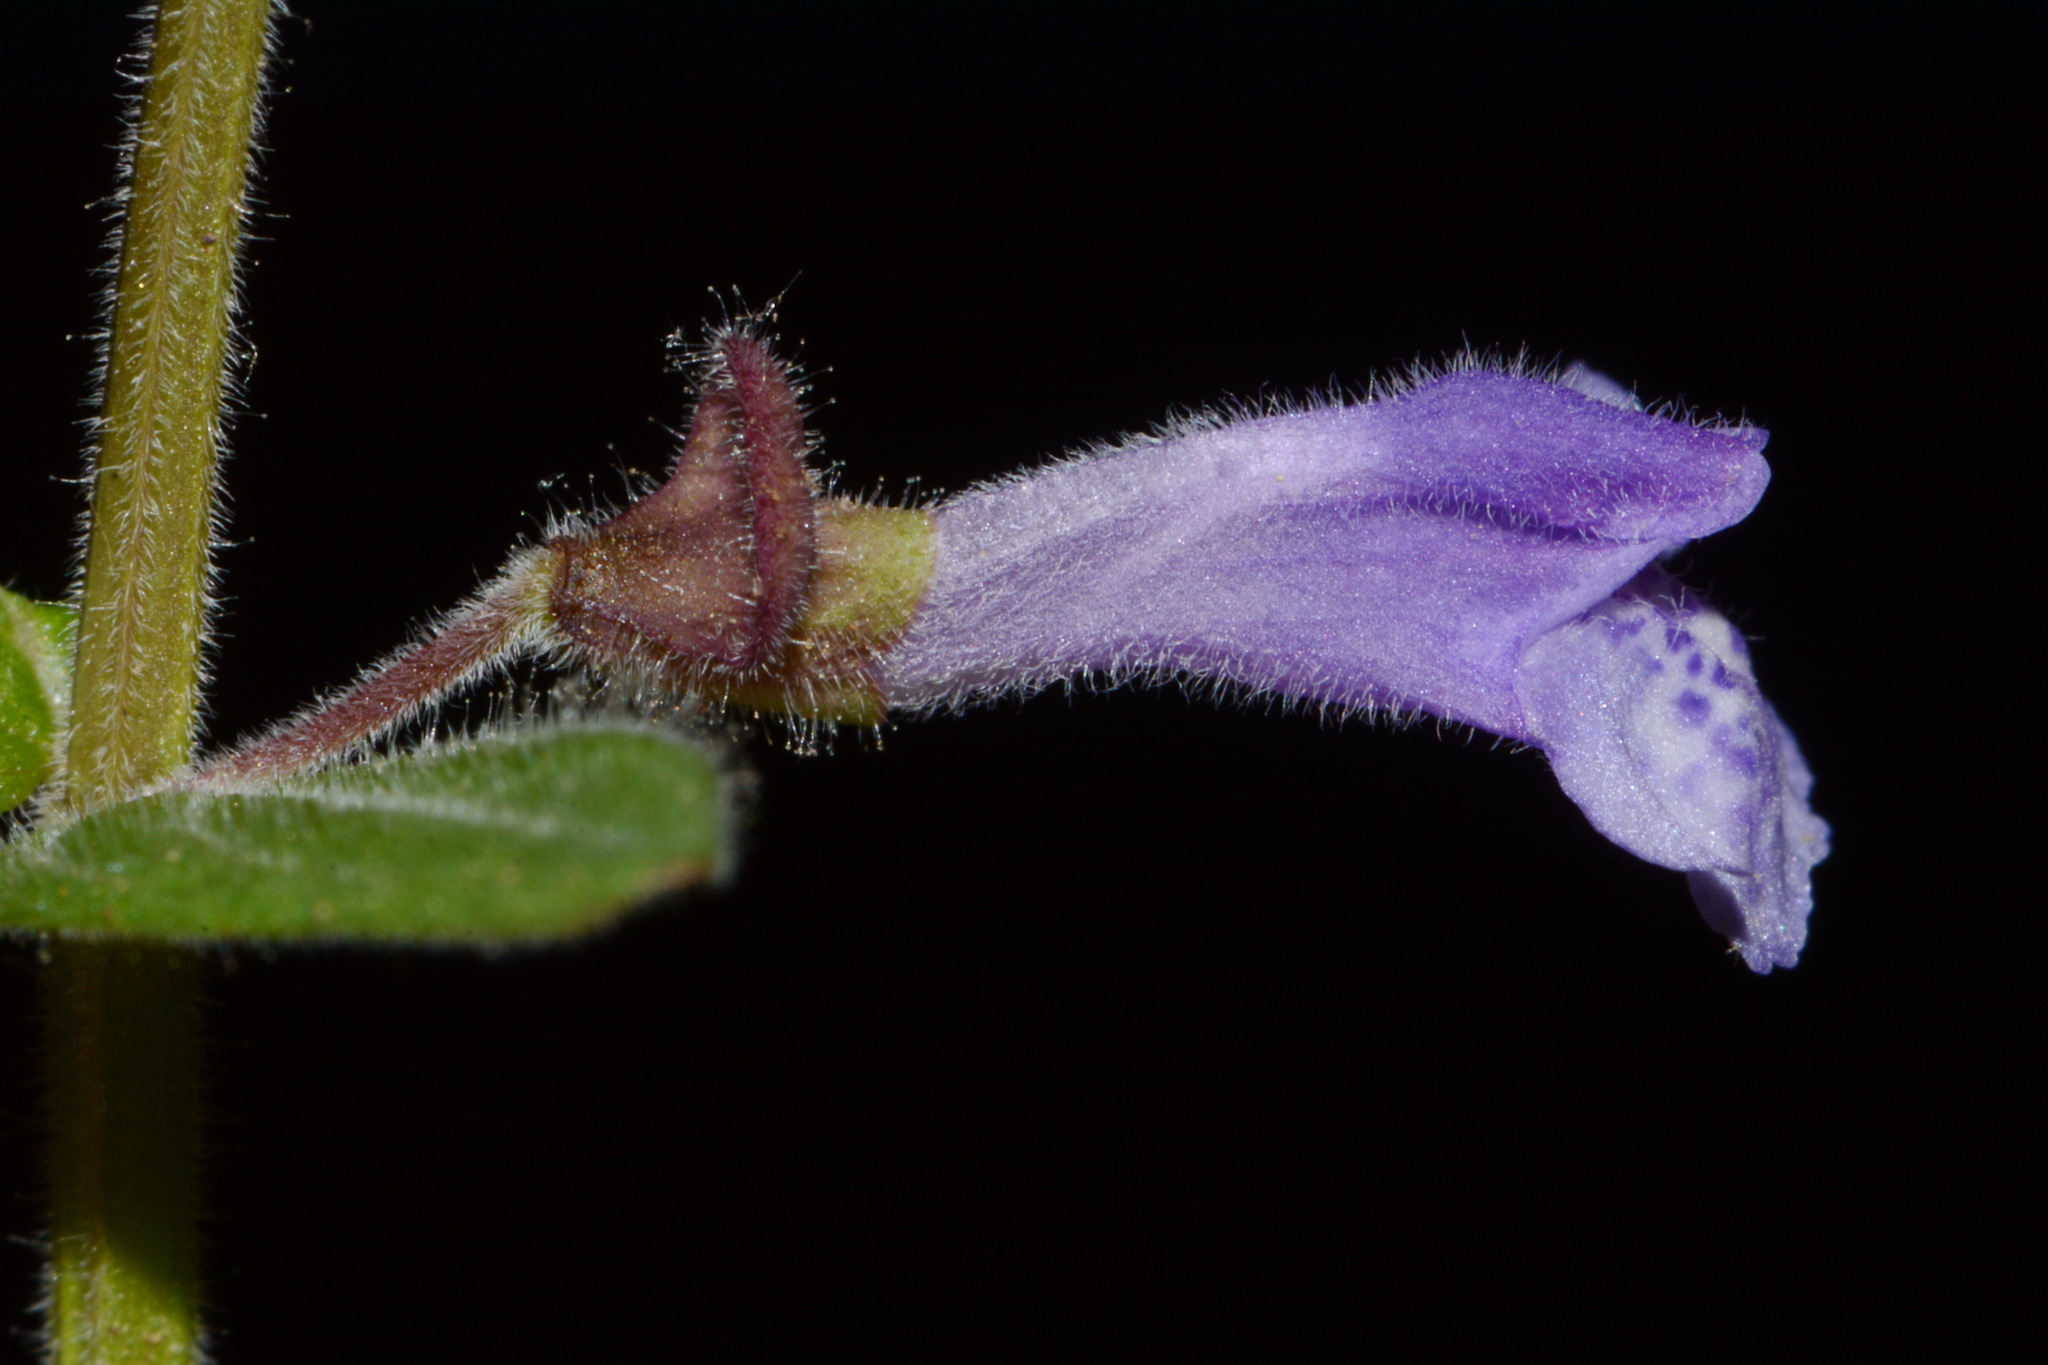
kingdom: Plantae
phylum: Tracheophyta
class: Magnoliopsida
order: Lamiales
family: Lamiaceae
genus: Scutellaria
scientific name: Scutellaria parvula
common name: Little scullcap
